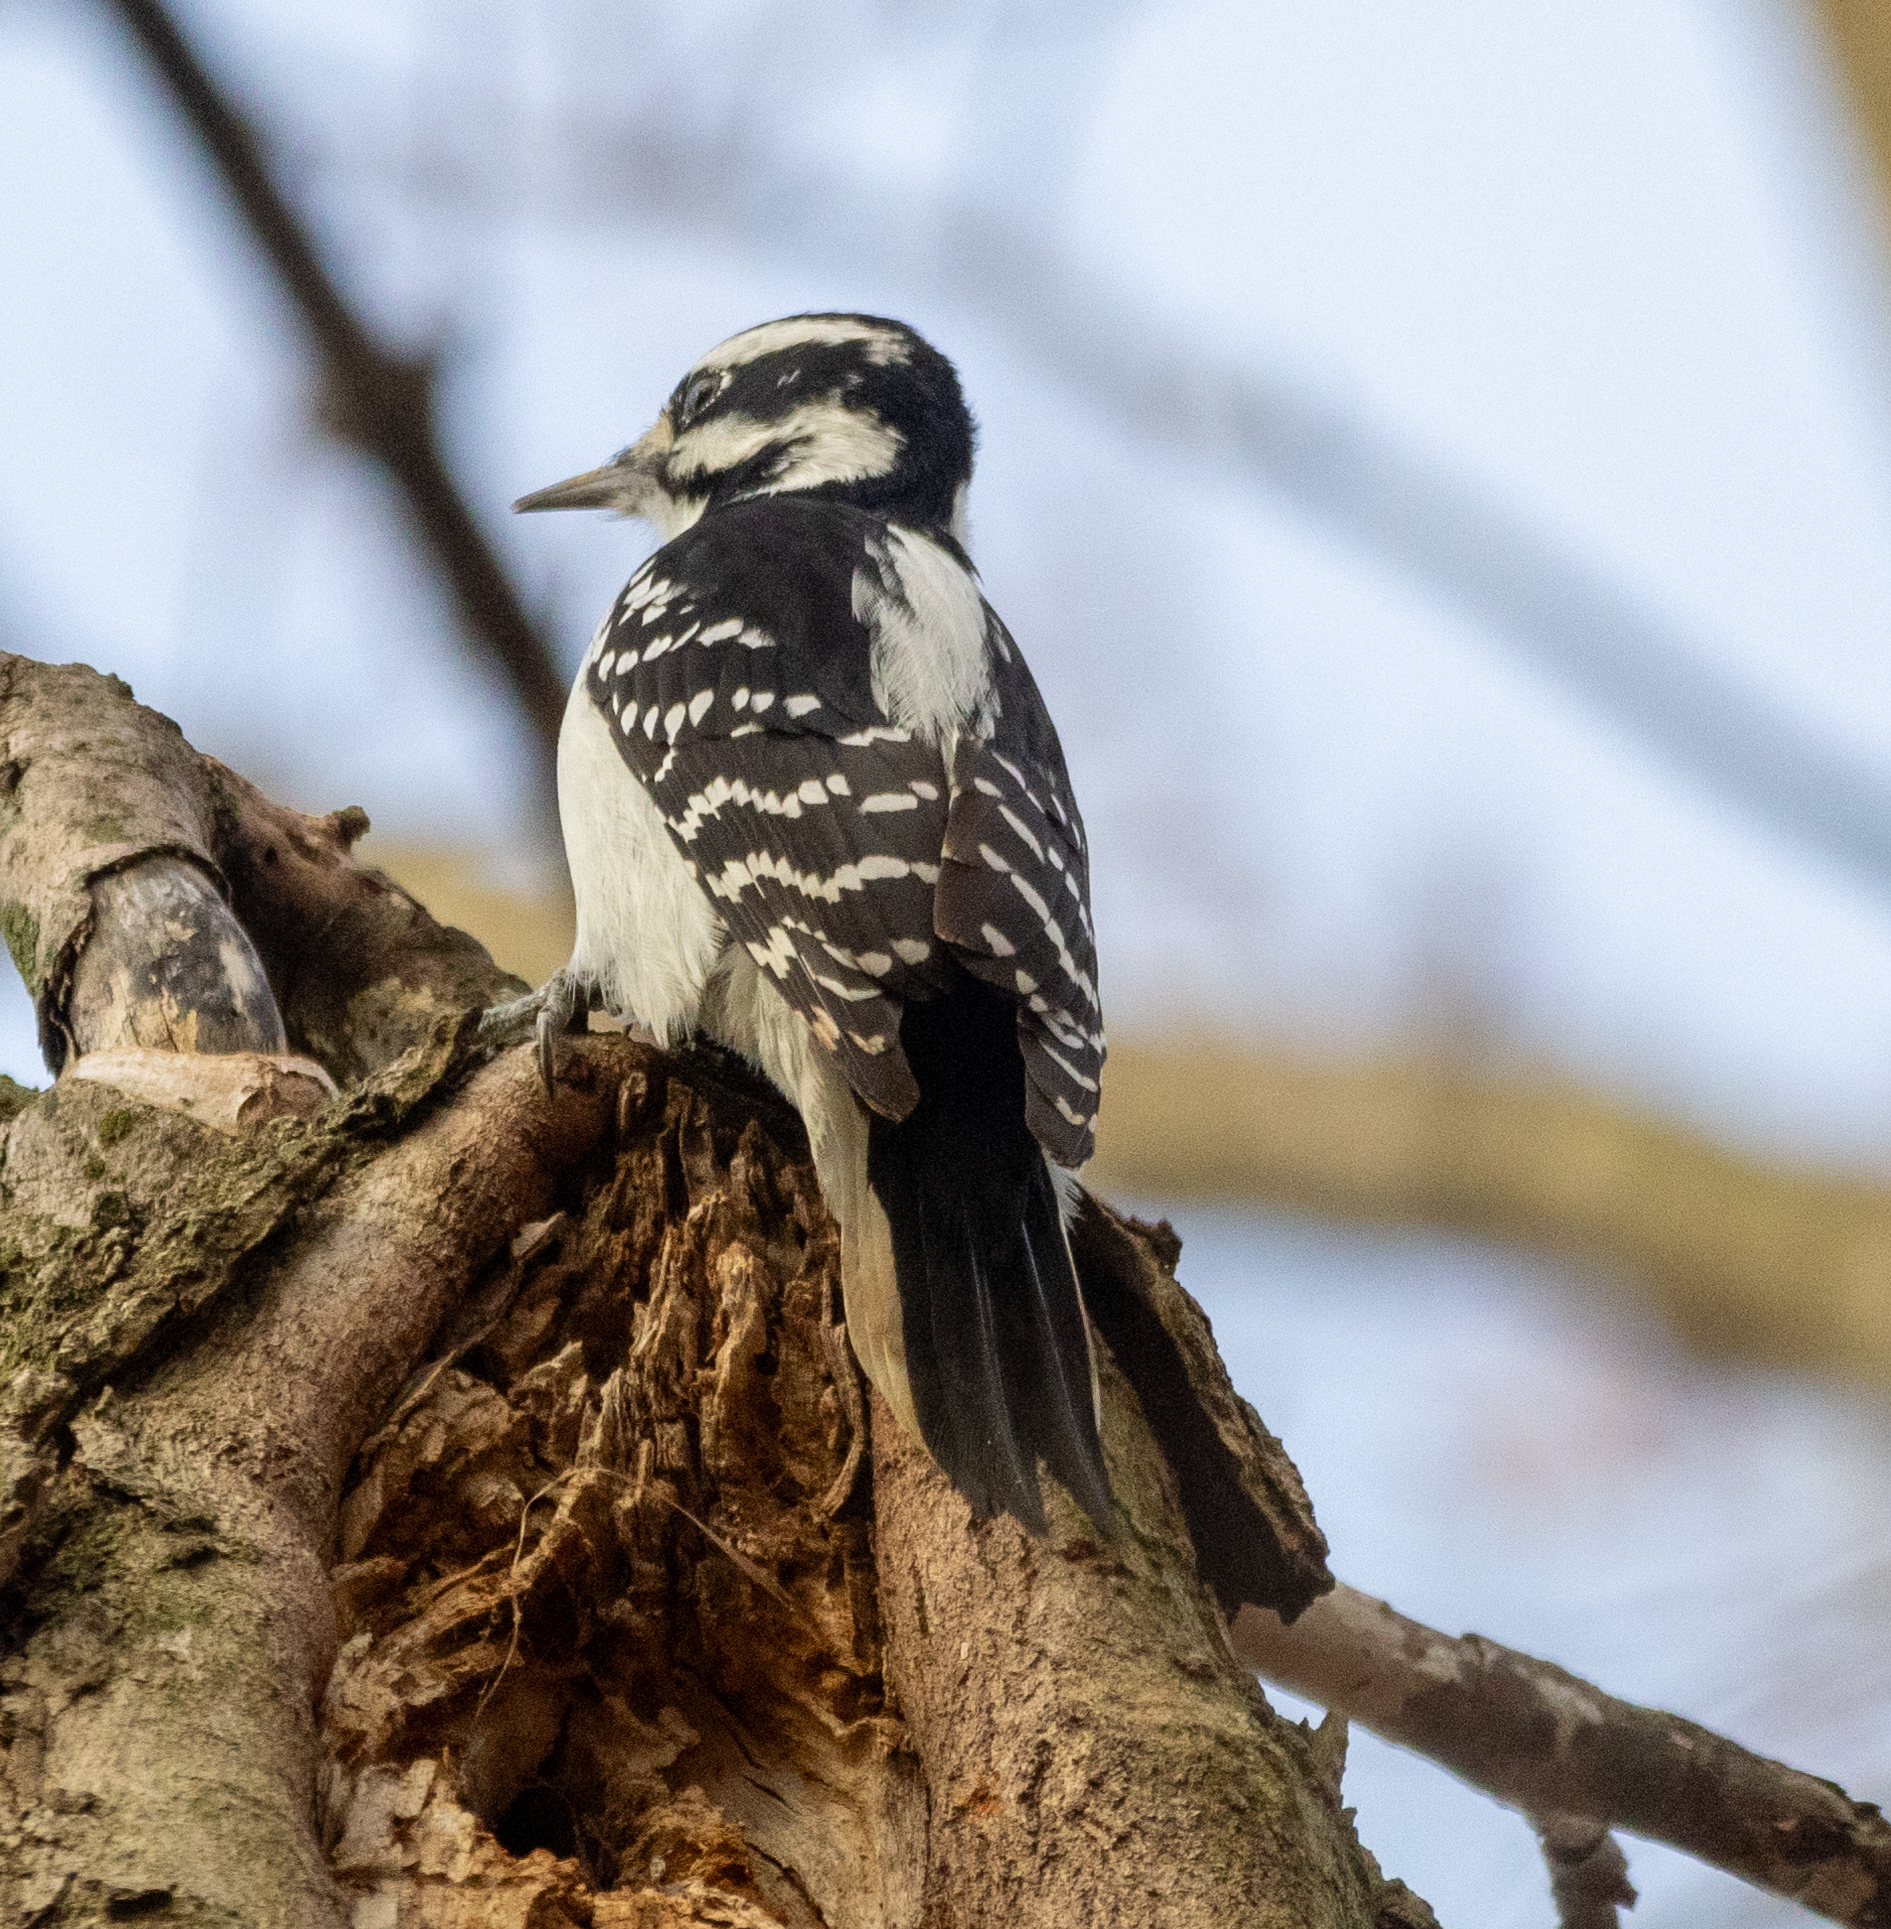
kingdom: Animalia
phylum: Chordata
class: Aves
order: Piciformes
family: Picidae
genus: Leuconotopicus
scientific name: Leuconotopicus villosus
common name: Hairy woodpecker
